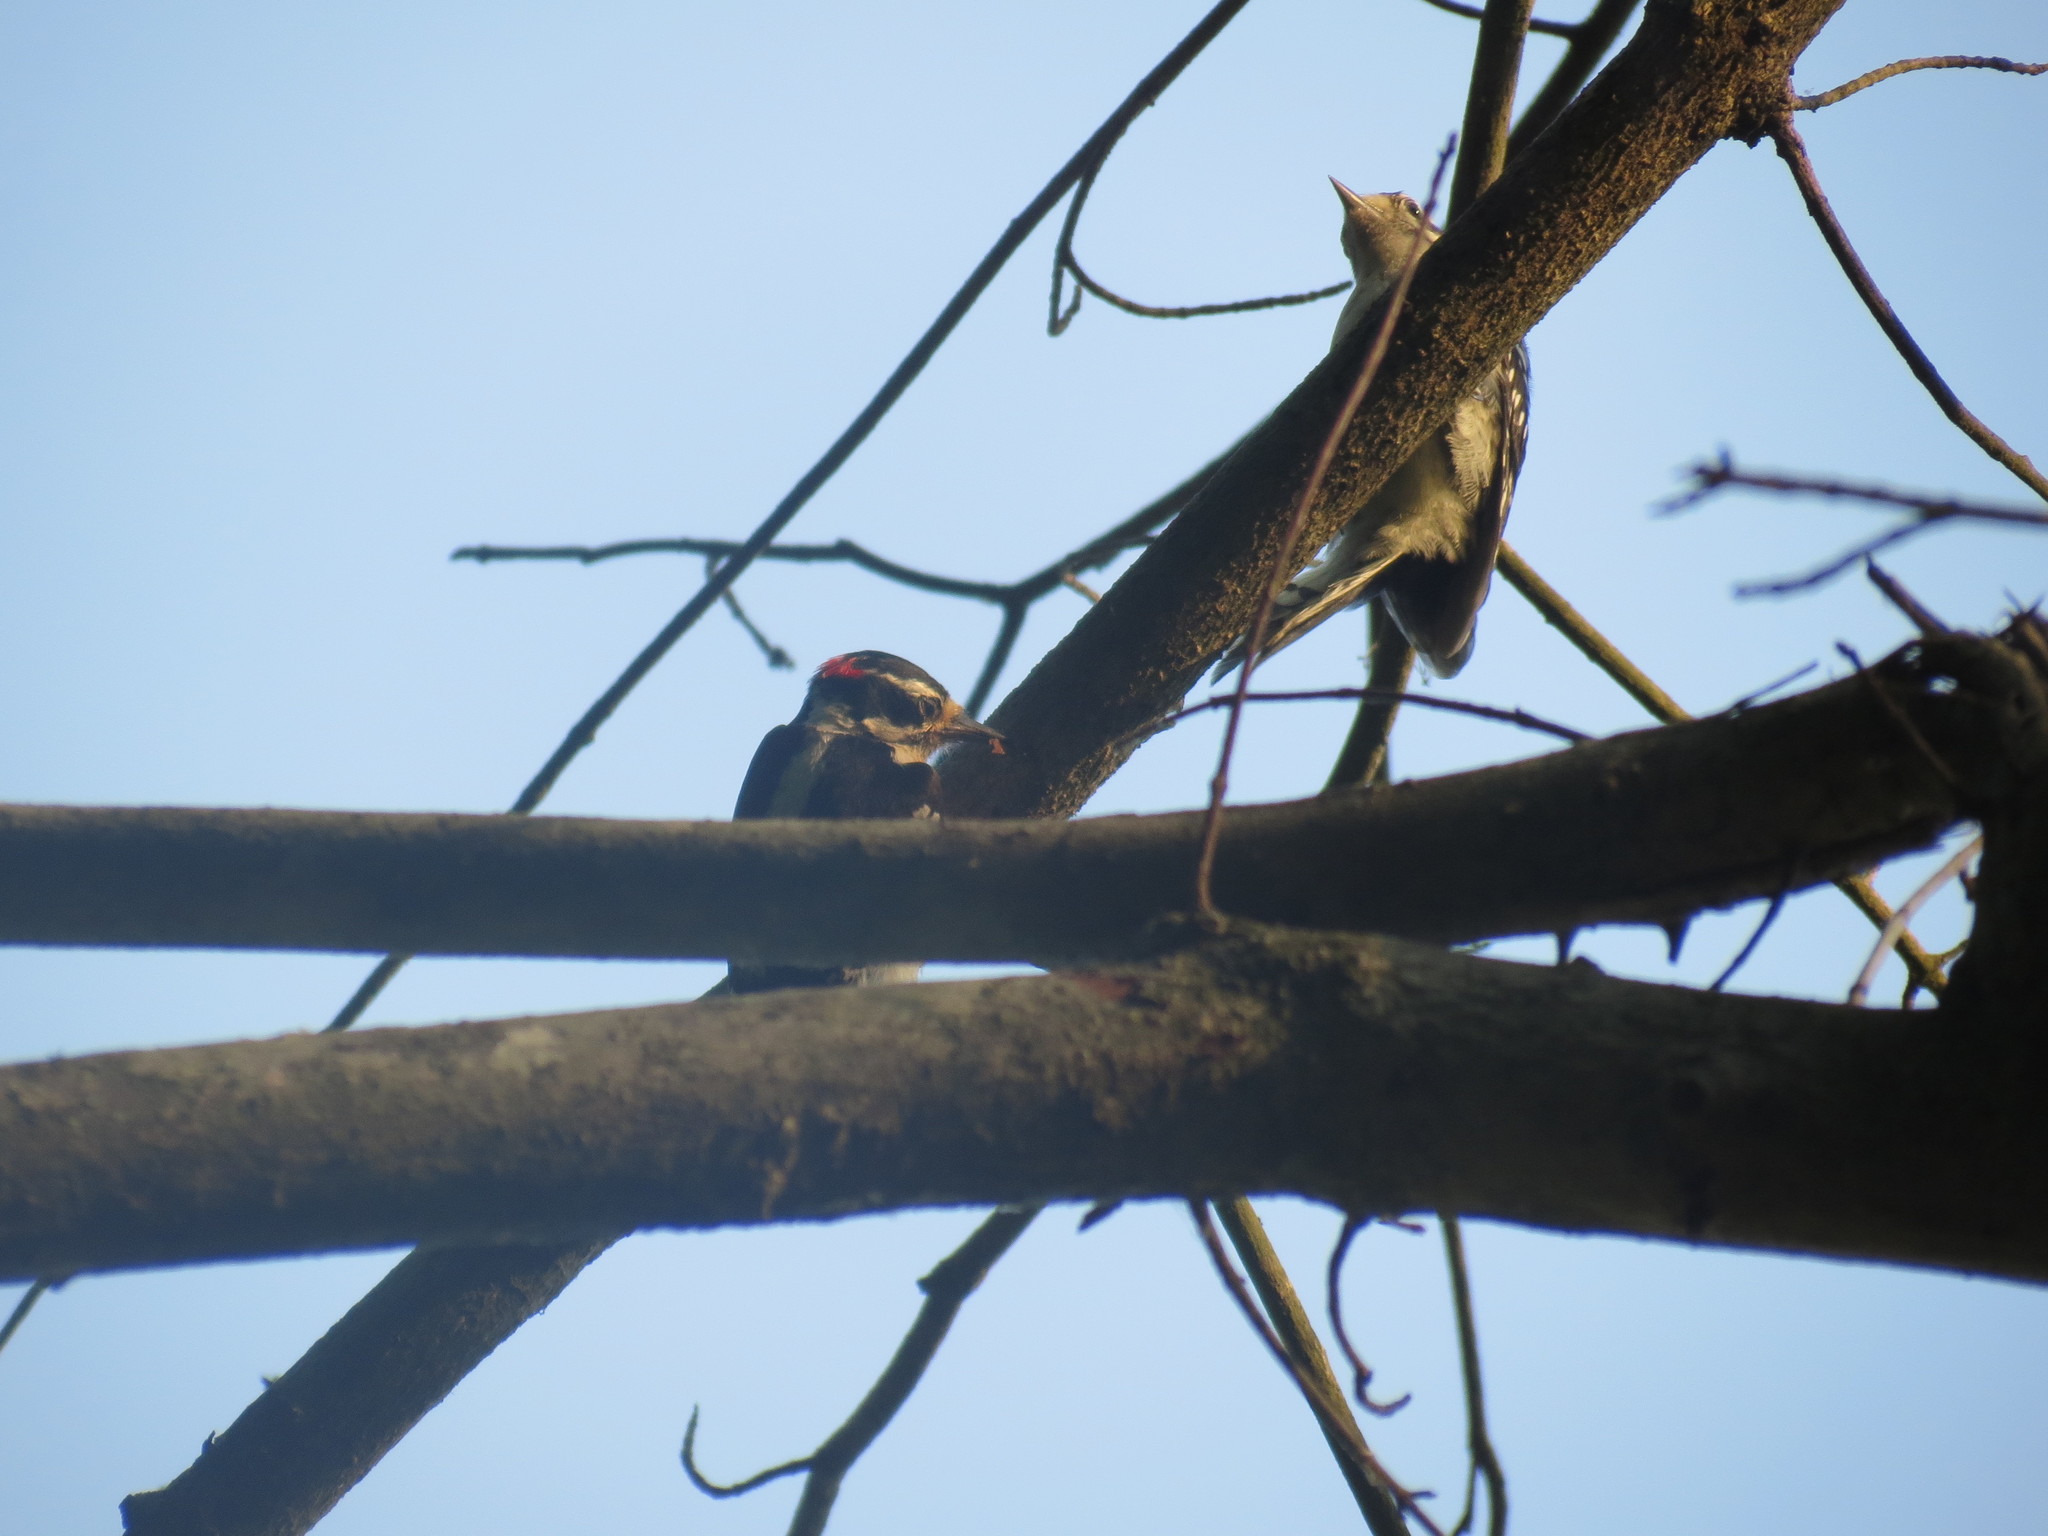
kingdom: Animalia
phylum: Chordata
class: Aves
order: Piciformes
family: Picidae
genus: Dryobates
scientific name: Dryobates pubescens
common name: Downy woodpecker
